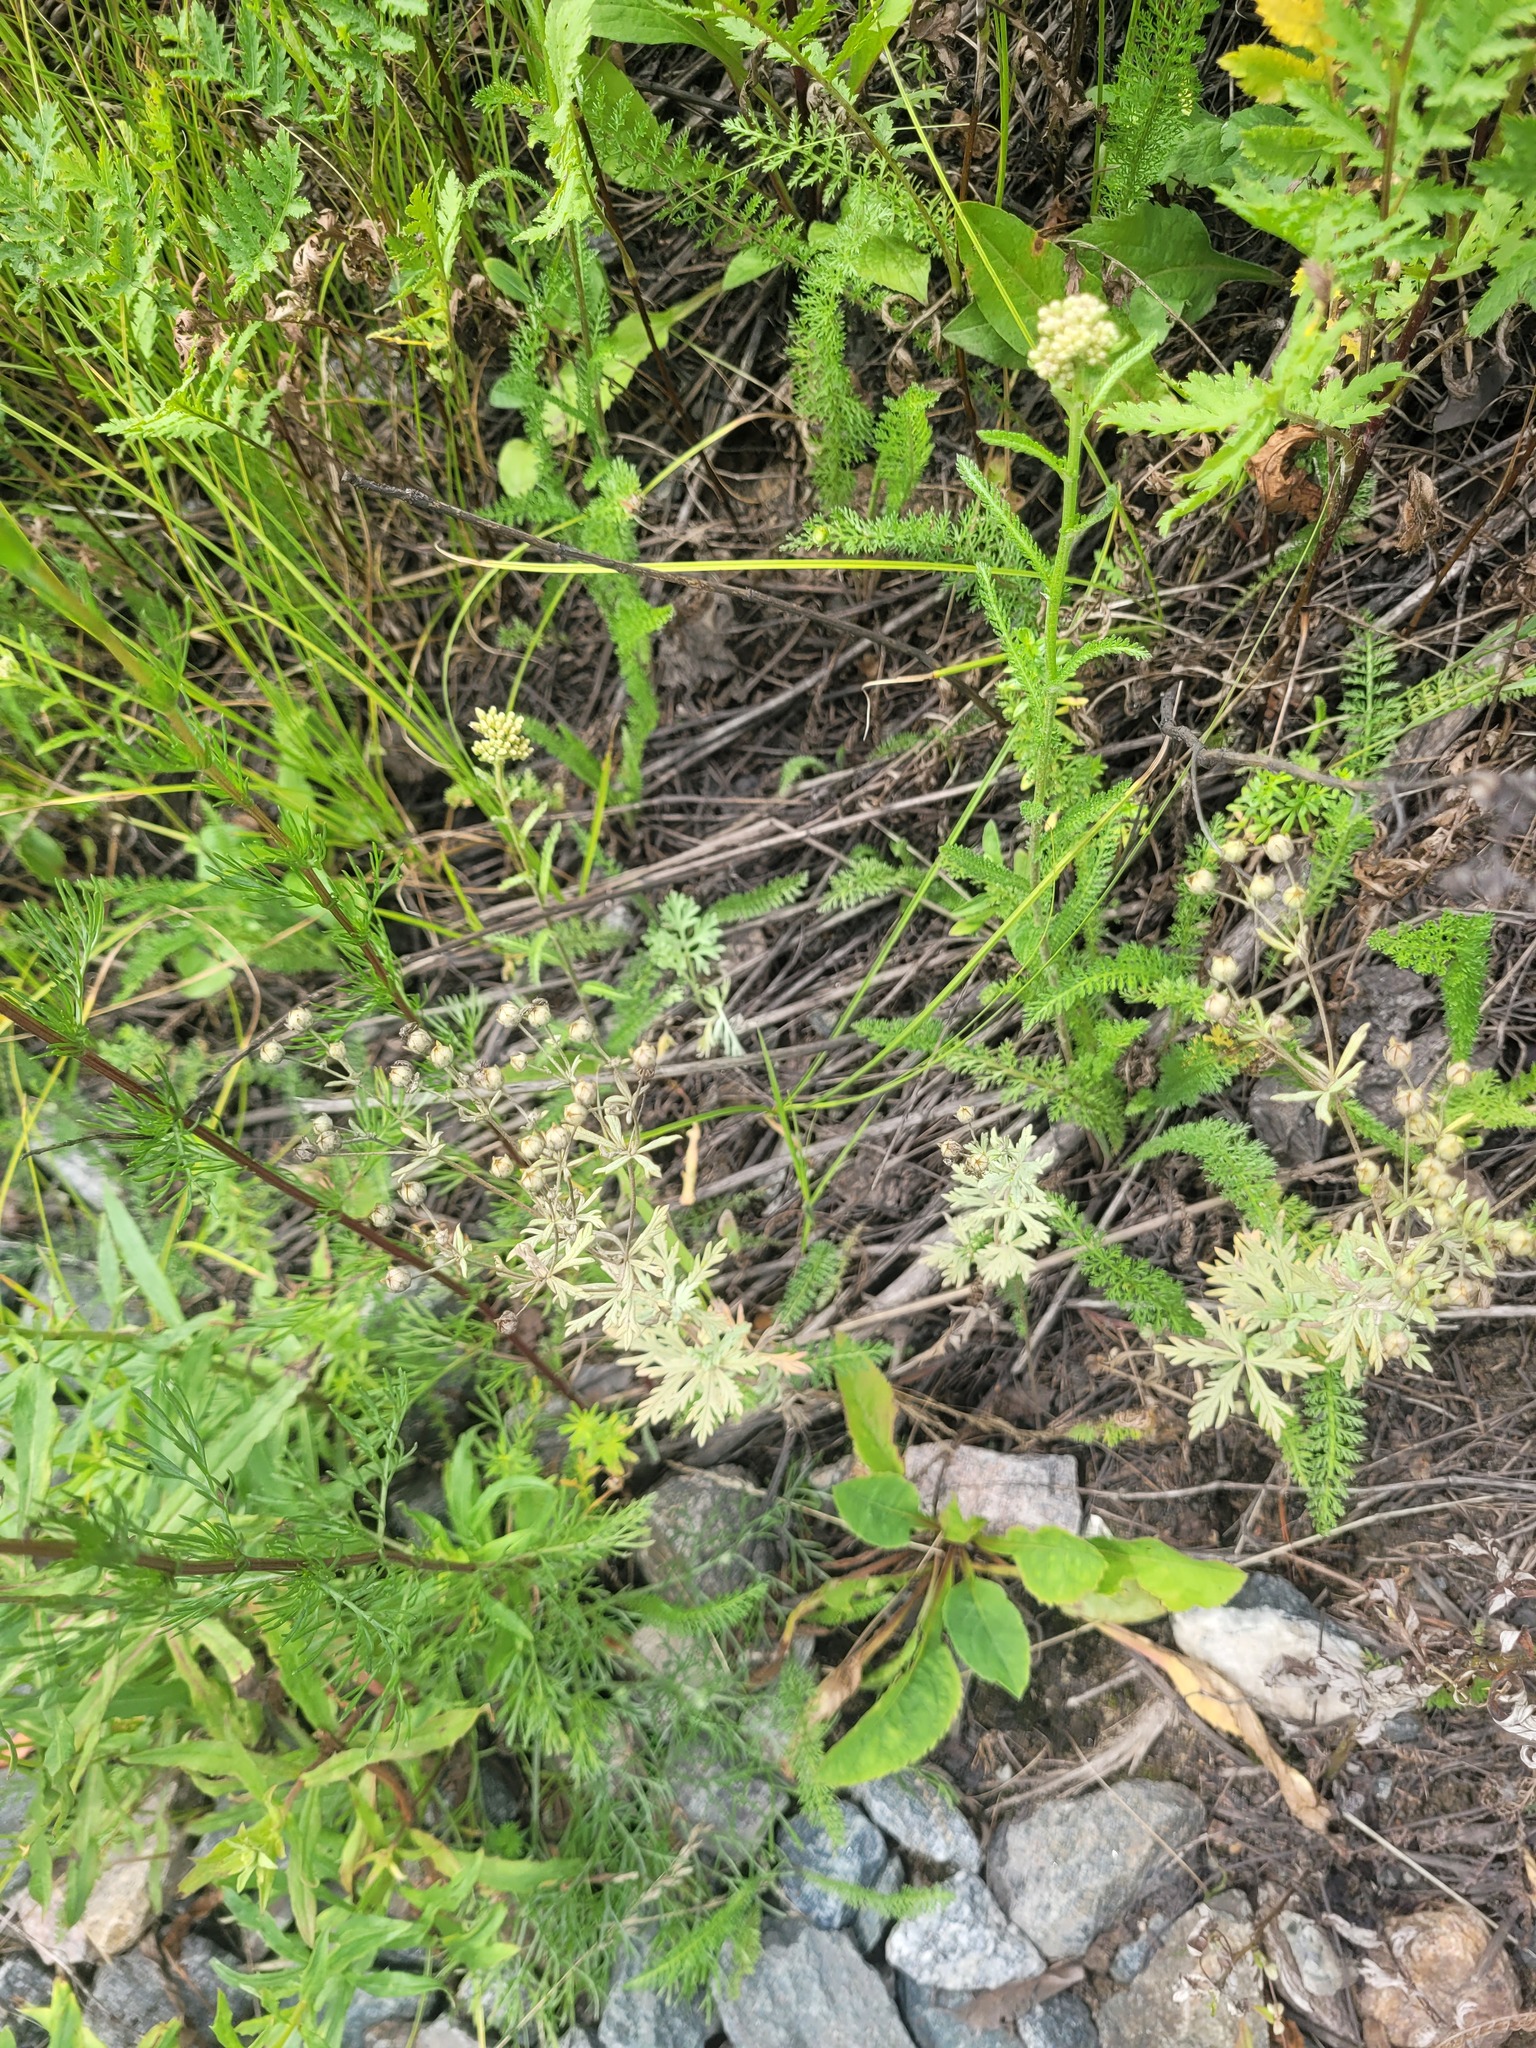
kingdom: Plantae
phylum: Tracheophyta
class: Magnoliopsida
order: Rosales
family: Rosaceae
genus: Potentilla
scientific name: Potentilla argentea
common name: Hoary cinquefoil
